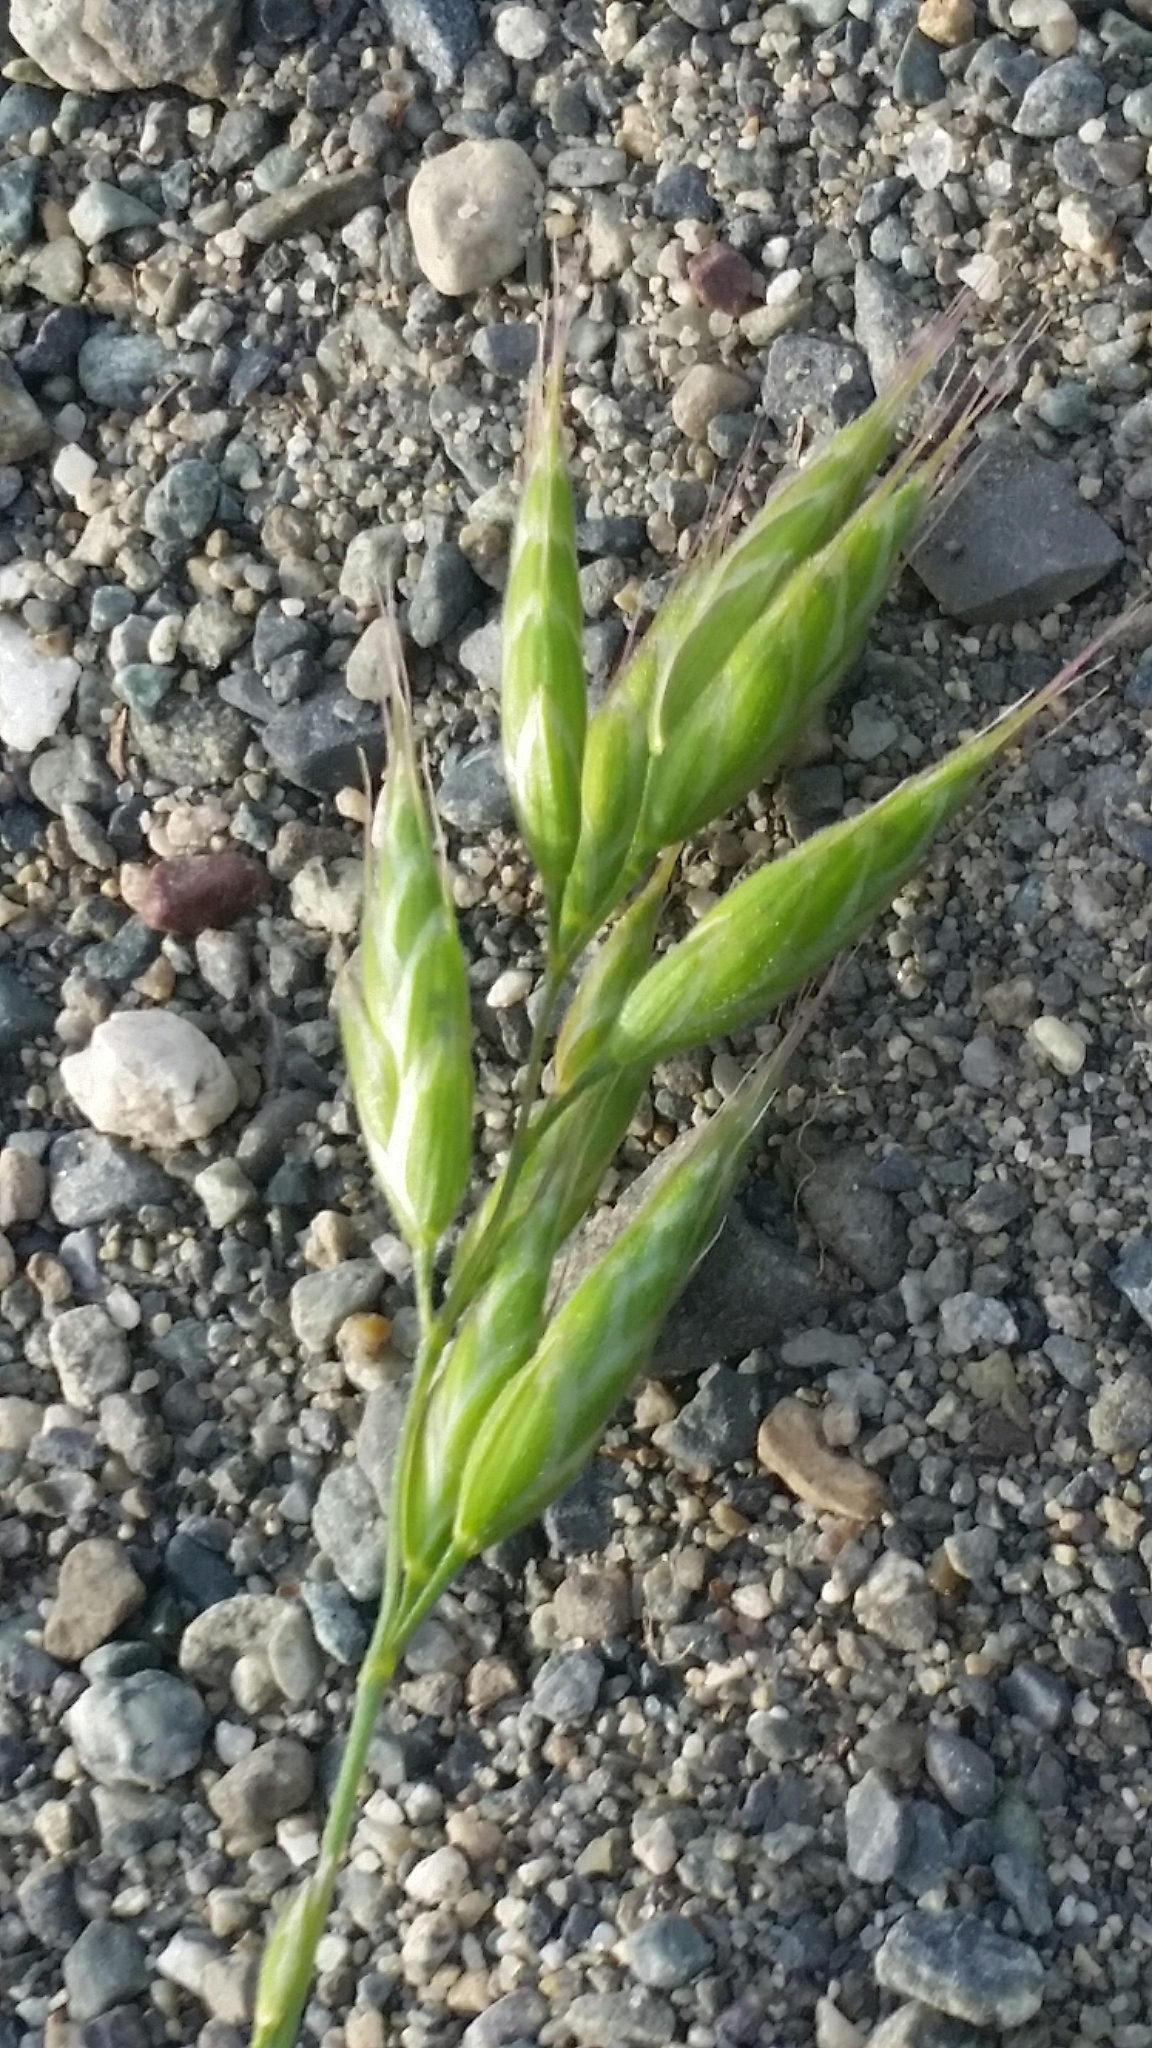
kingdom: Plantae
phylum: Tracheophyta
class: Liliopsida
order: Poales
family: Poaceae
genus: Bromus
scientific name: Bromus hordeaceus
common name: Soft brome
